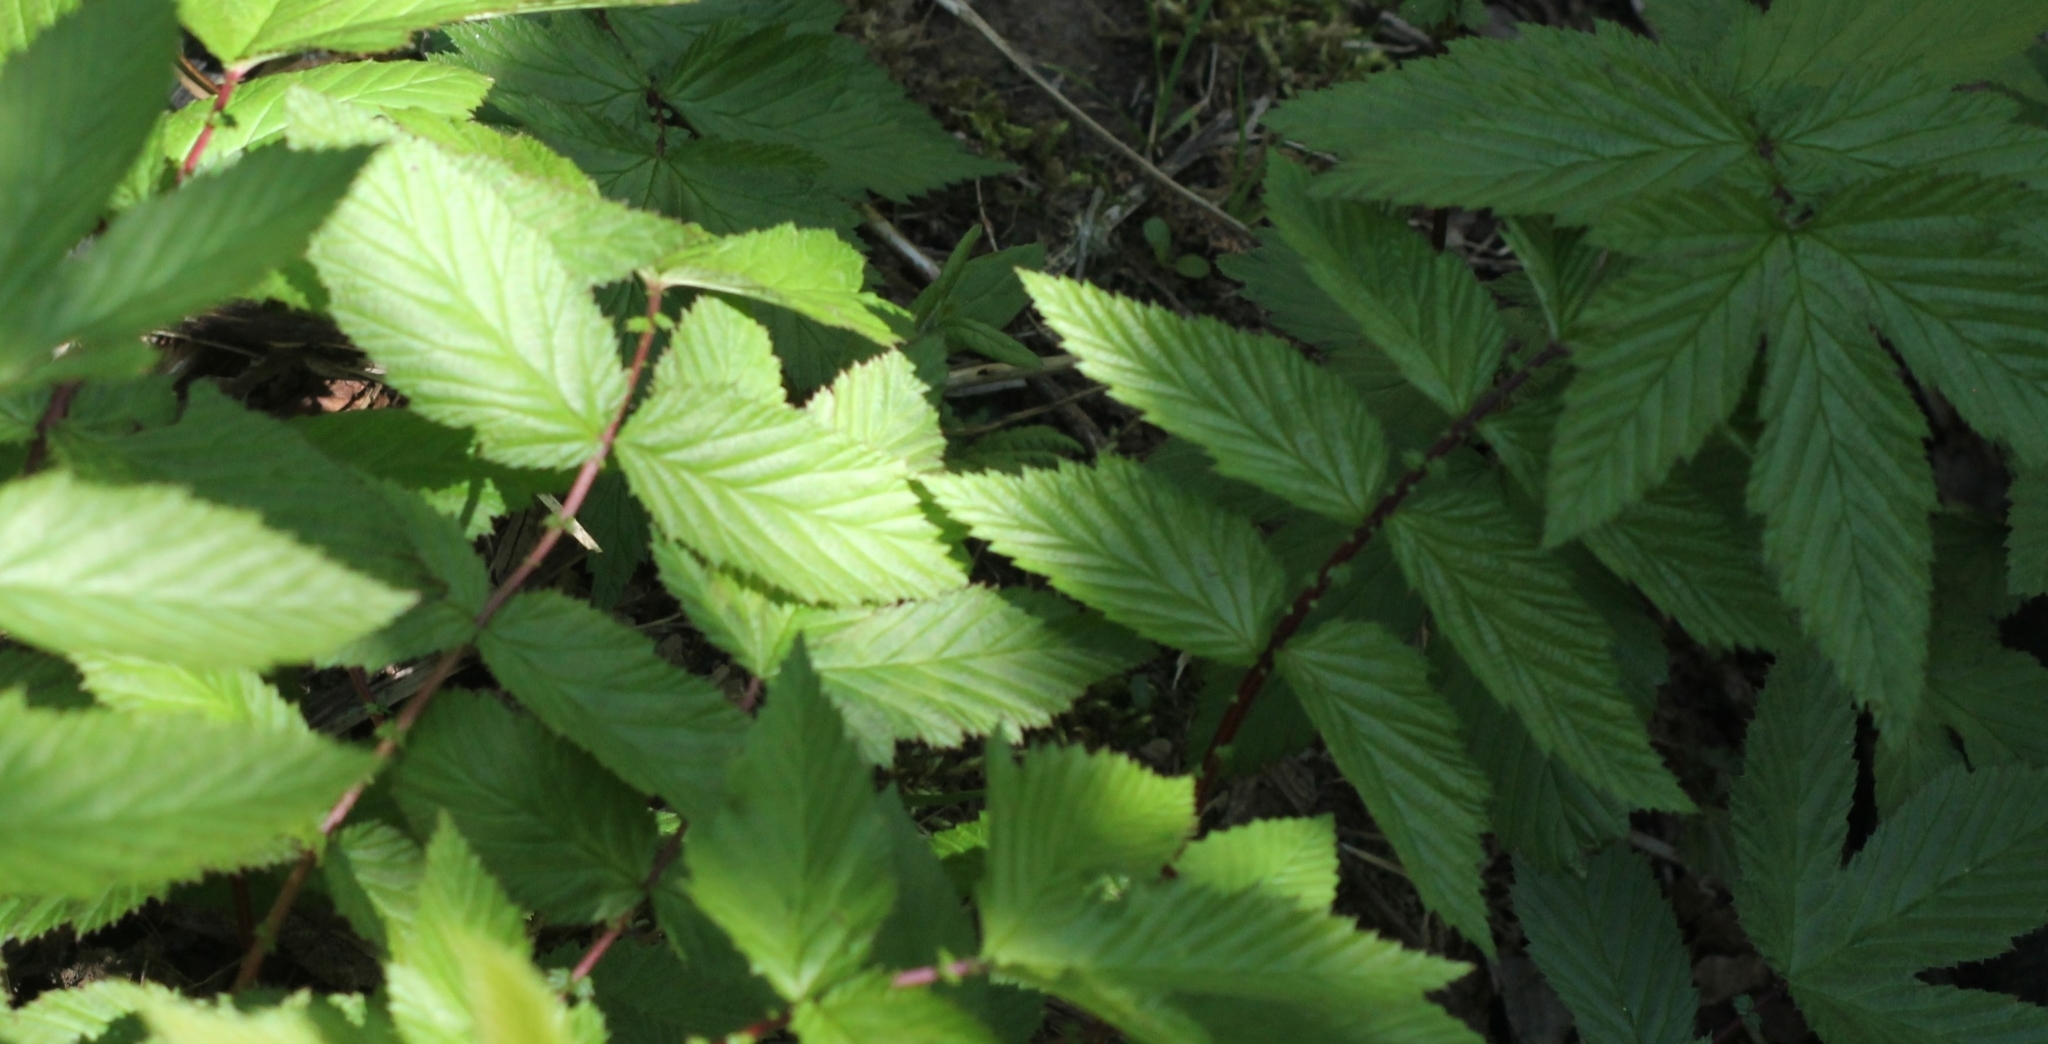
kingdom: Plantae
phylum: Tracheophyta
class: Magnoliopsida
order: Rosales
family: Rosaceae
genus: Filipendula
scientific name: Filipendula ulmaria
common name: Meadowsweet
